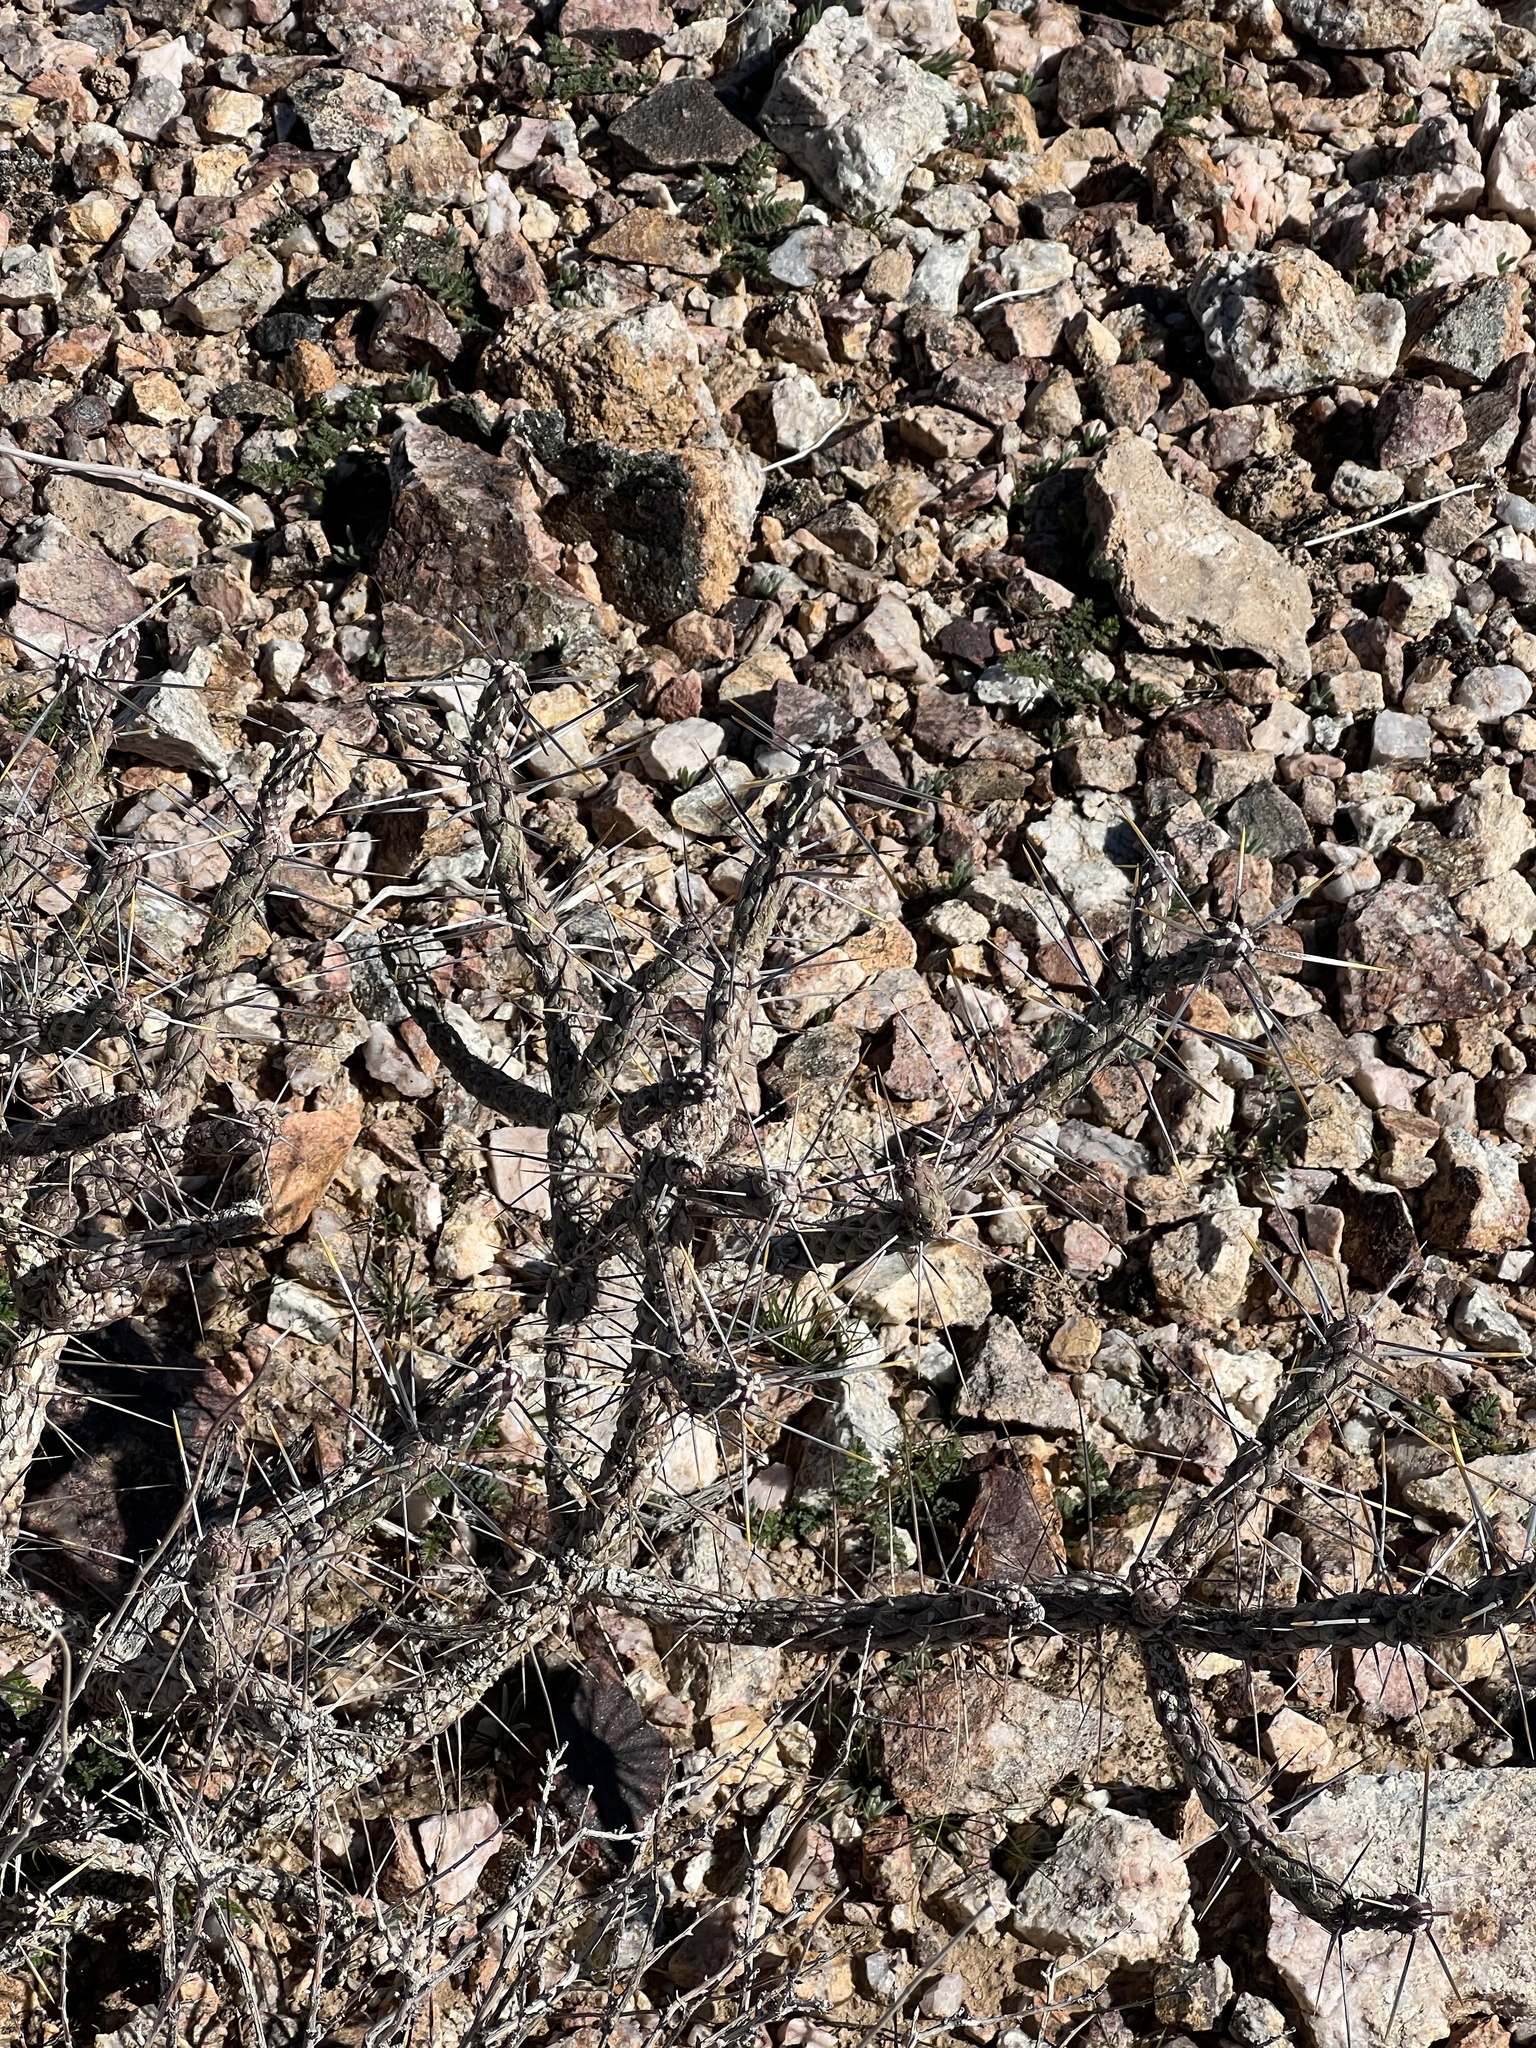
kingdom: Plantae
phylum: Tracheophyta
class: Magnoliopsida
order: Caryophyllales
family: Cactaceae
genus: Cylindropuntia
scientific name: Cylindropuntia ramosissima
